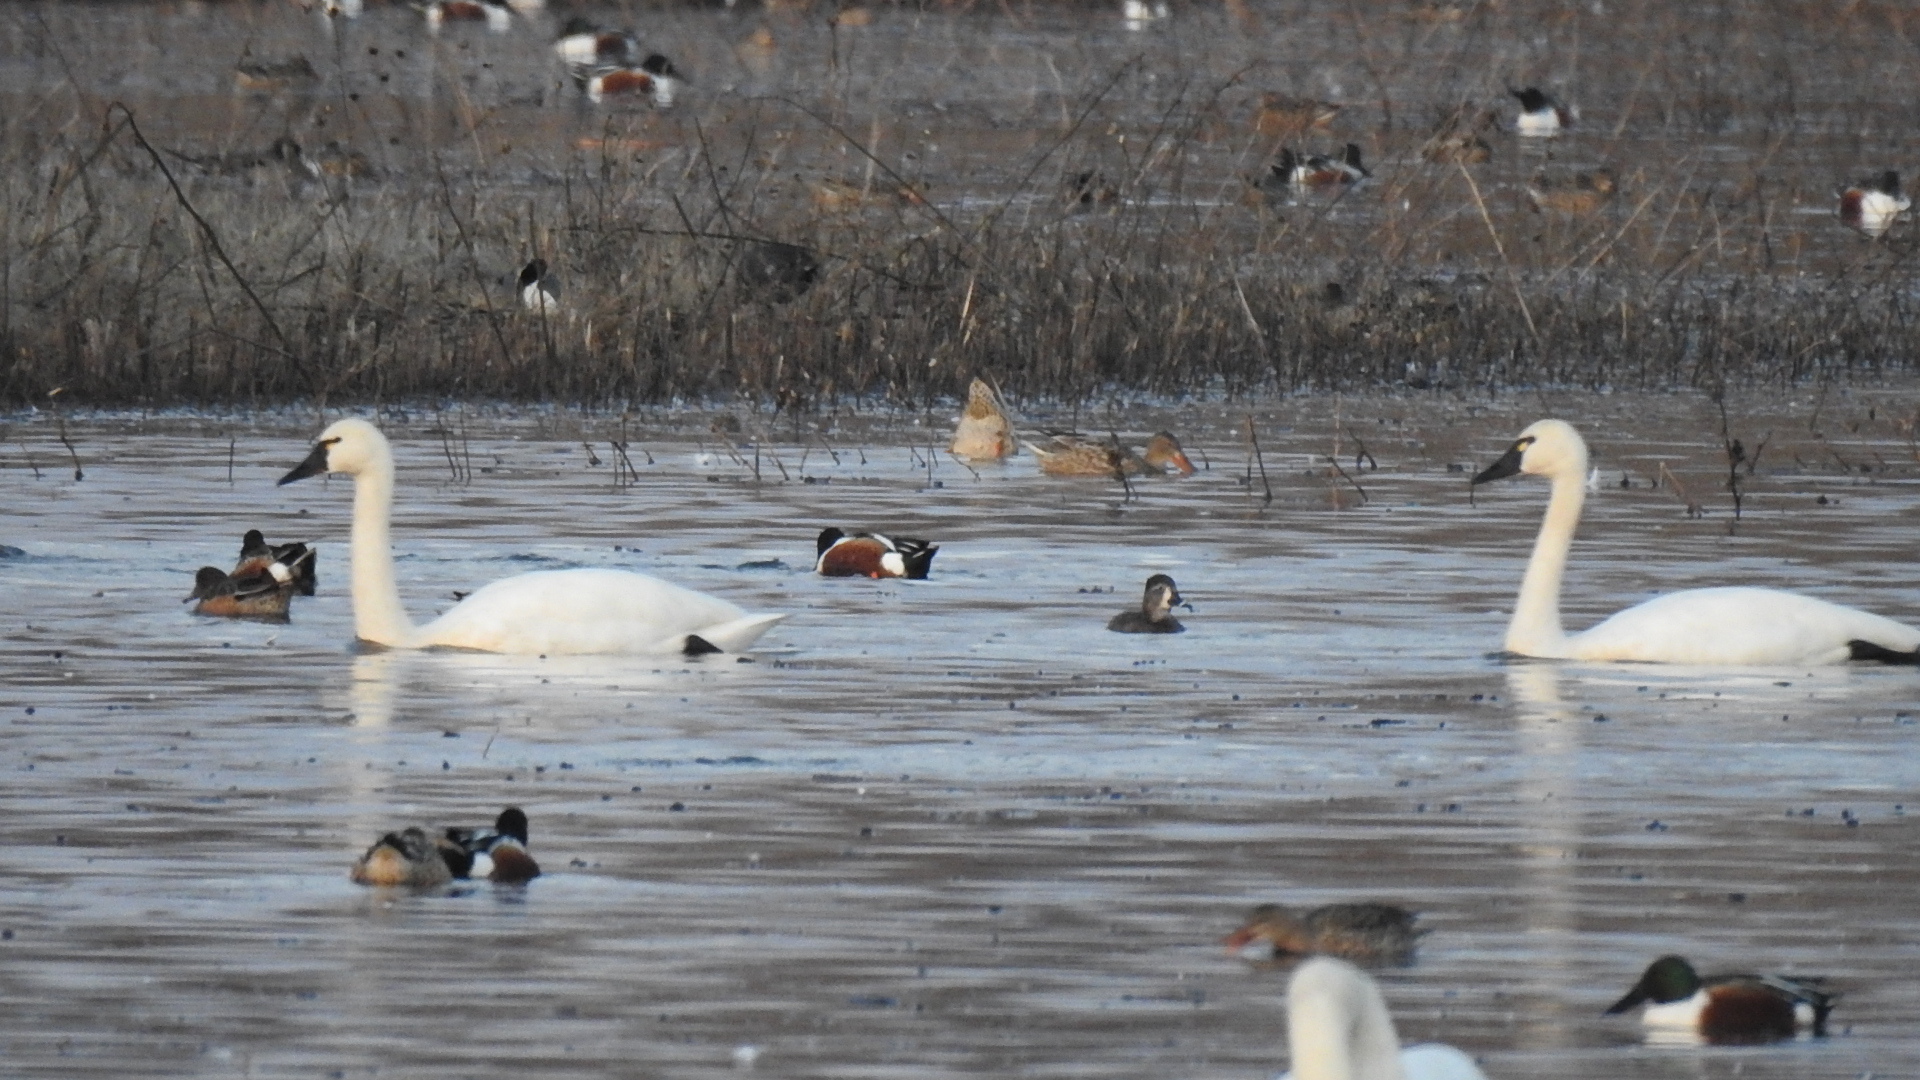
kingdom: Animalia
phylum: Chordata
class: Aves
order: Anseriformes
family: Anatidae
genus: Cygnus
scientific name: Cygnus columbianus
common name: Tundra swan
